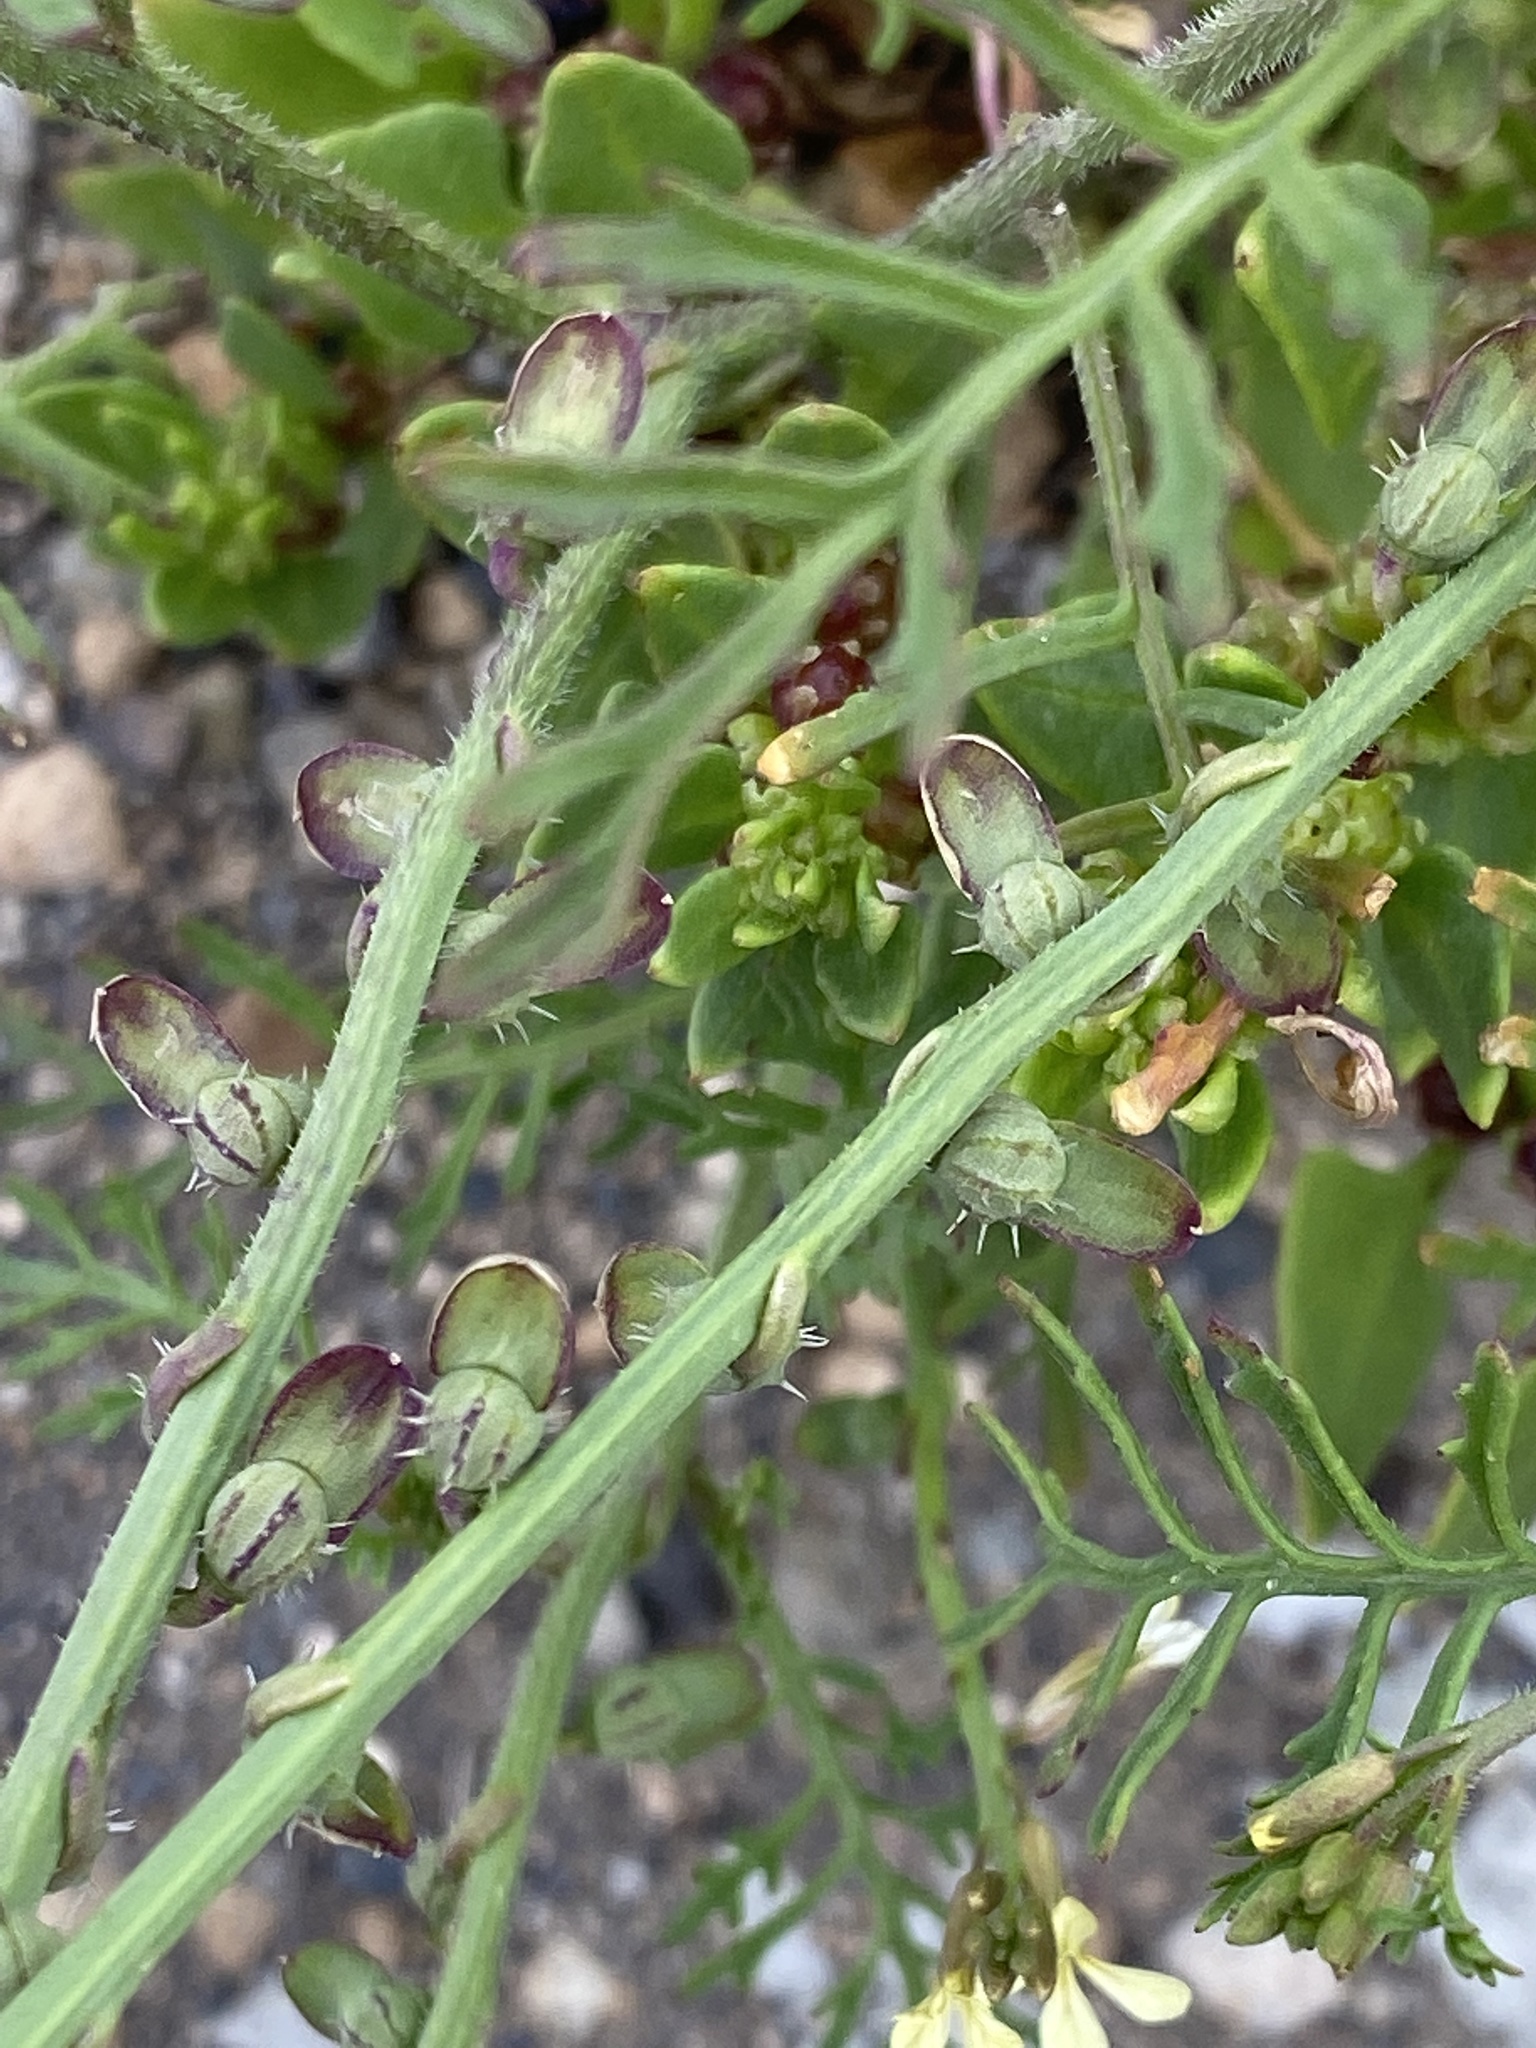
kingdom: Plantae
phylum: Tracheophyta
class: Magnoliopsida
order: Brassicales
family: Brassicaceae
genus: Carrichtera
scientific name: Carrichtera annua
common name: Cress rocket
